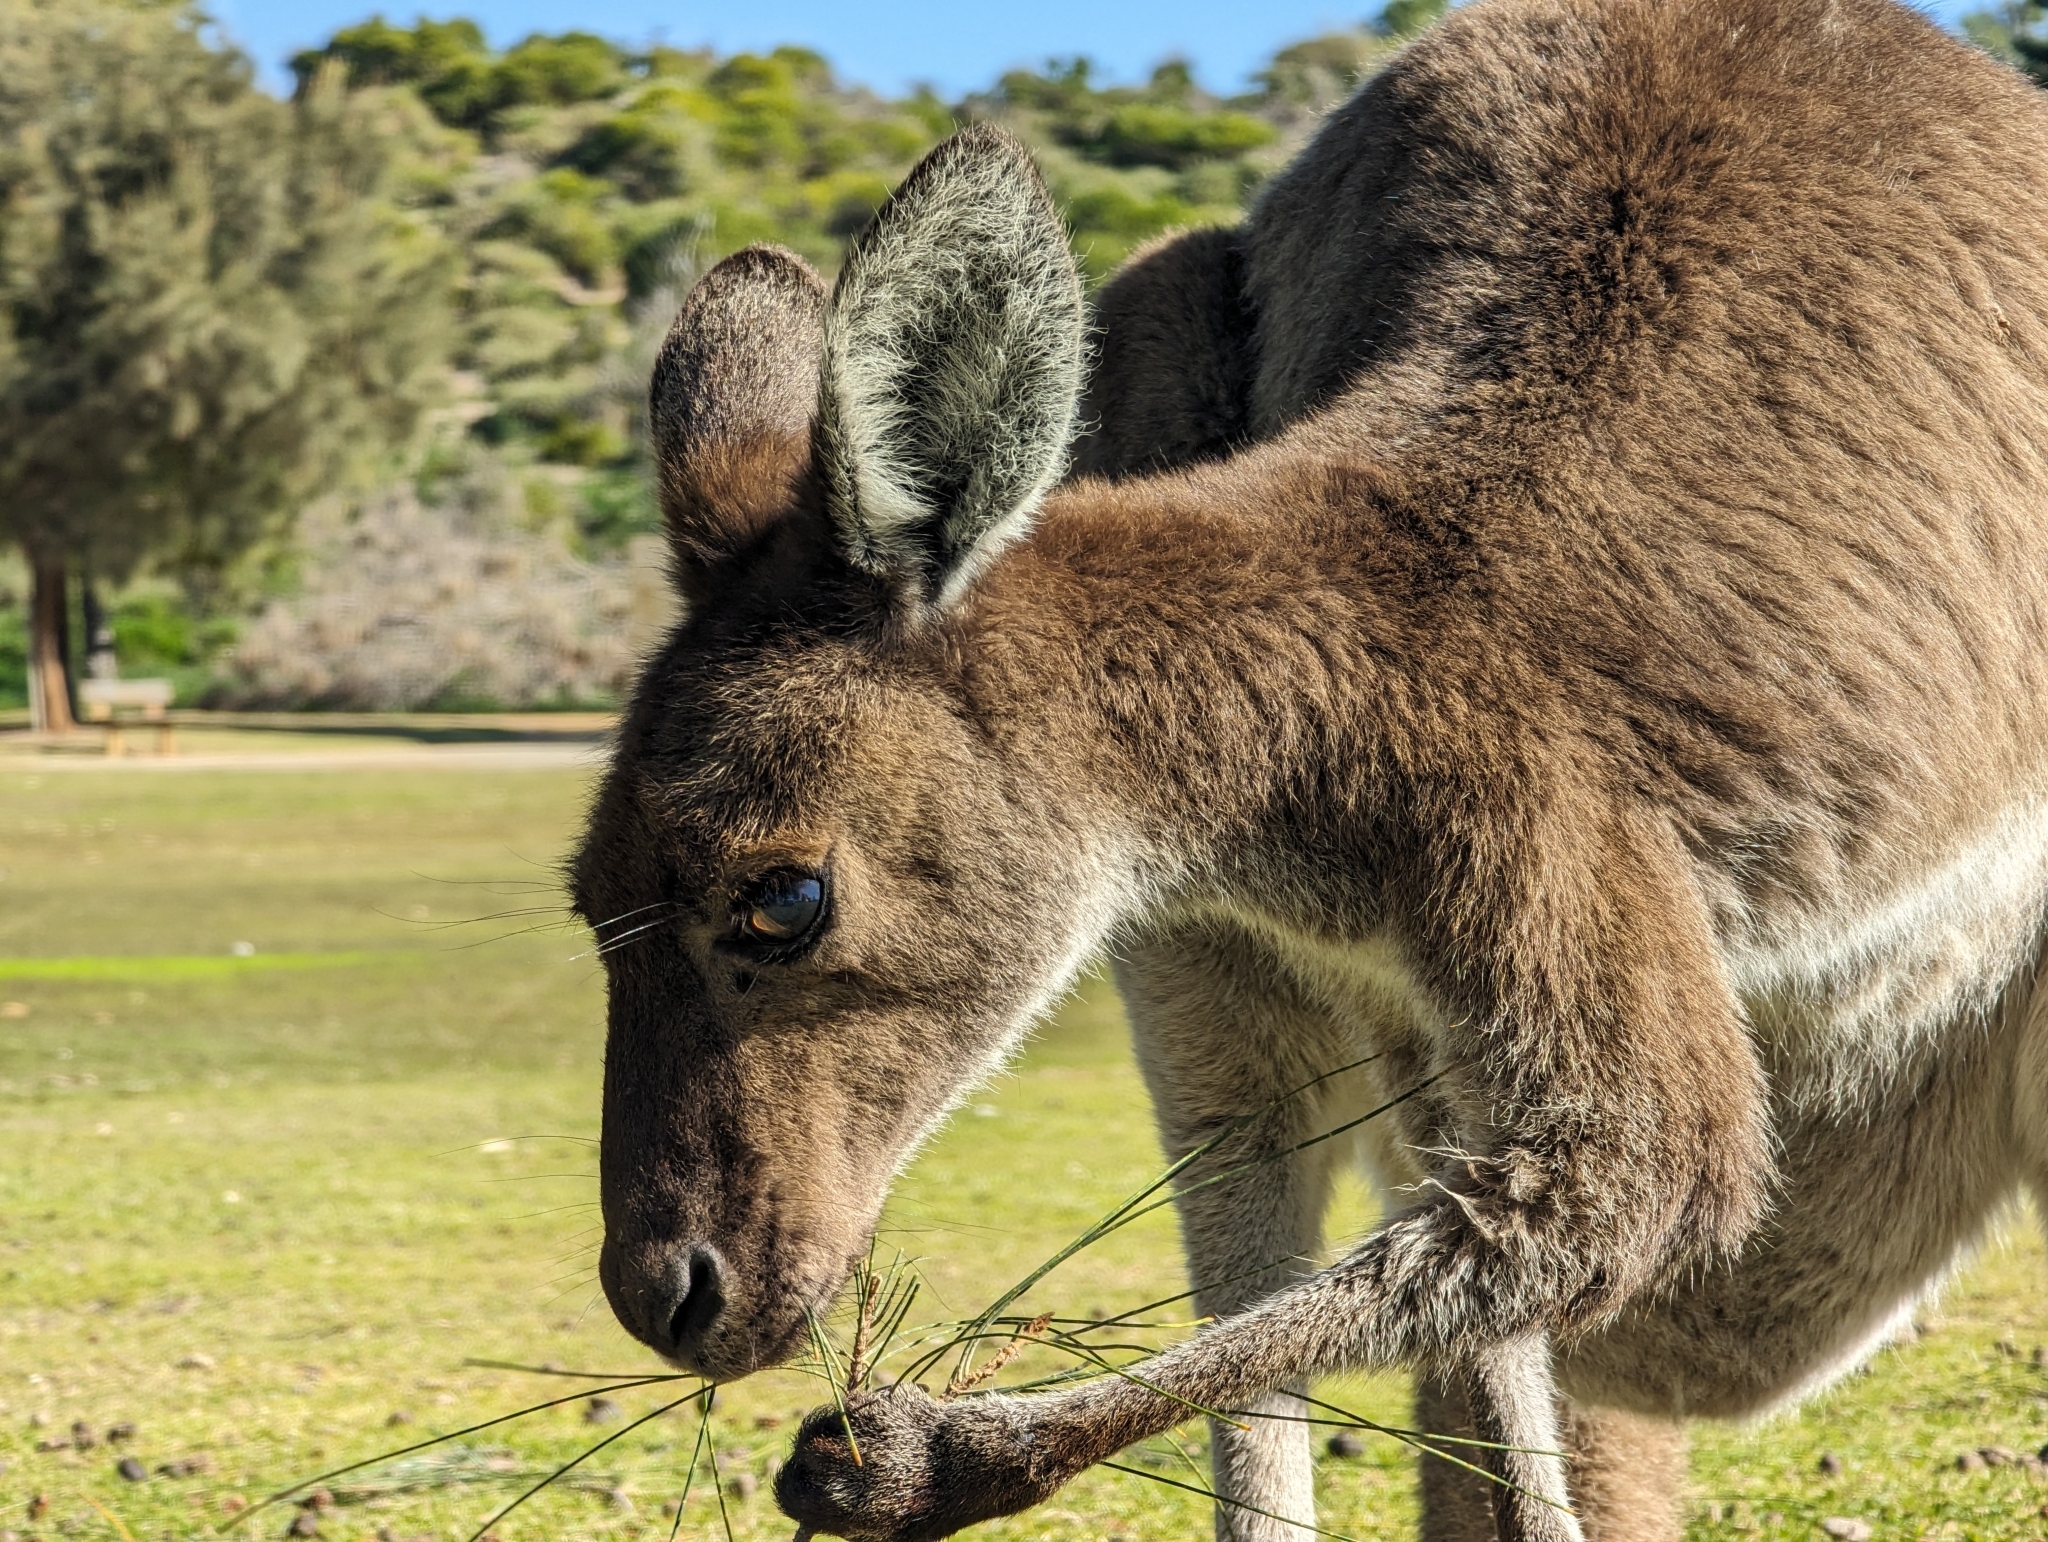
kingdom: Animalia
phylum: Chordata
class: Mammalia
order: Diprotodontia
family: Macropodidae
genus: Macropus
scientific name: Macropus fuliginosus
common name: Western grey kangaroo
